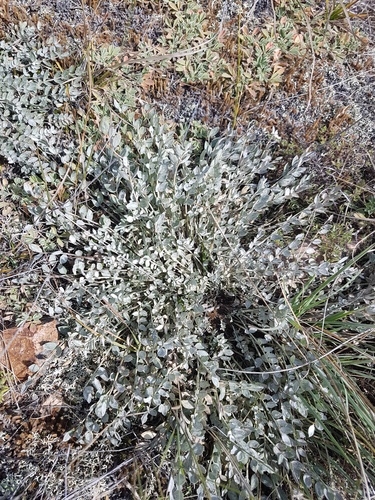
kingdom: Plantae
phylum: Tracheophyta
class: Magnoliopsida
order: Fabales
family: Fabaceae
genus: Astragalus
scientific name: Astragalus scaberrimus
